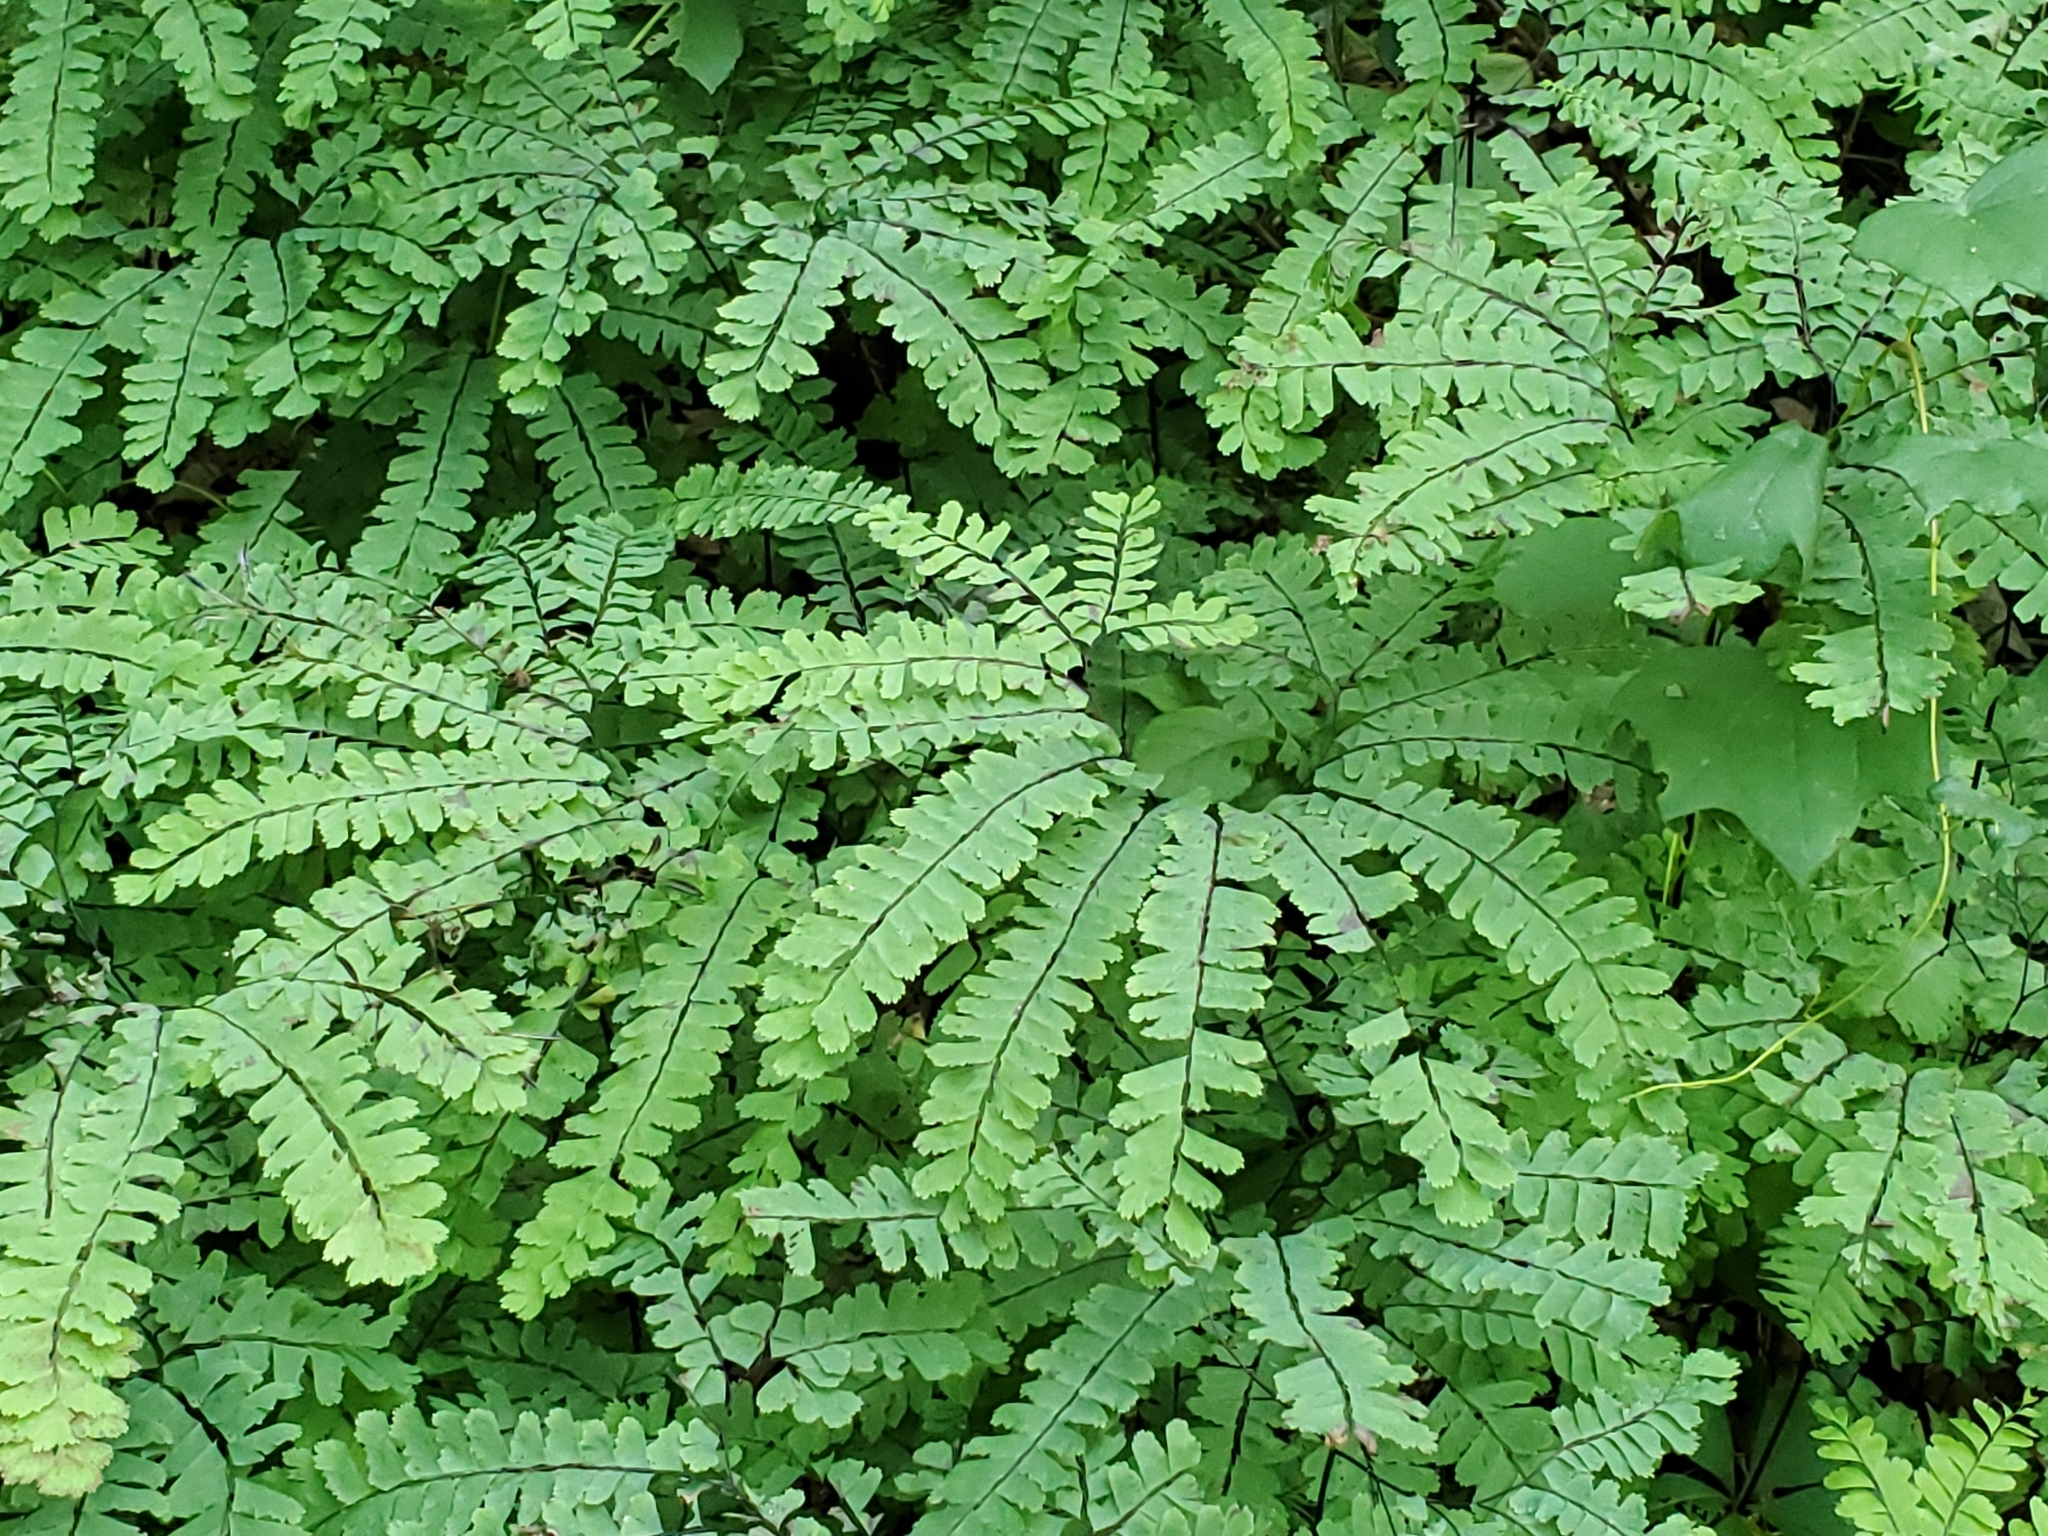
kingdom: Plantae
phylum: Tracheophyta
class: Polypodiopsida
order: Polypodiales
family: Pteridaceae
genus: Adiantum
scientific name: Adiantum pedatum
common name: Five-finger fern
